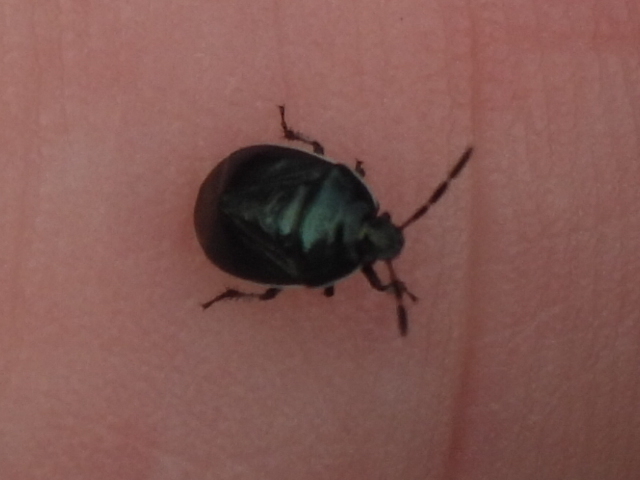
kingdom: Animalia
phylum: Arthropoda
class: Insecta
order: Hemiptera
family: Cydnidae
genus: Sehirus
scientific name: Sehirus cinctus
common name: White-margined burrower bug
